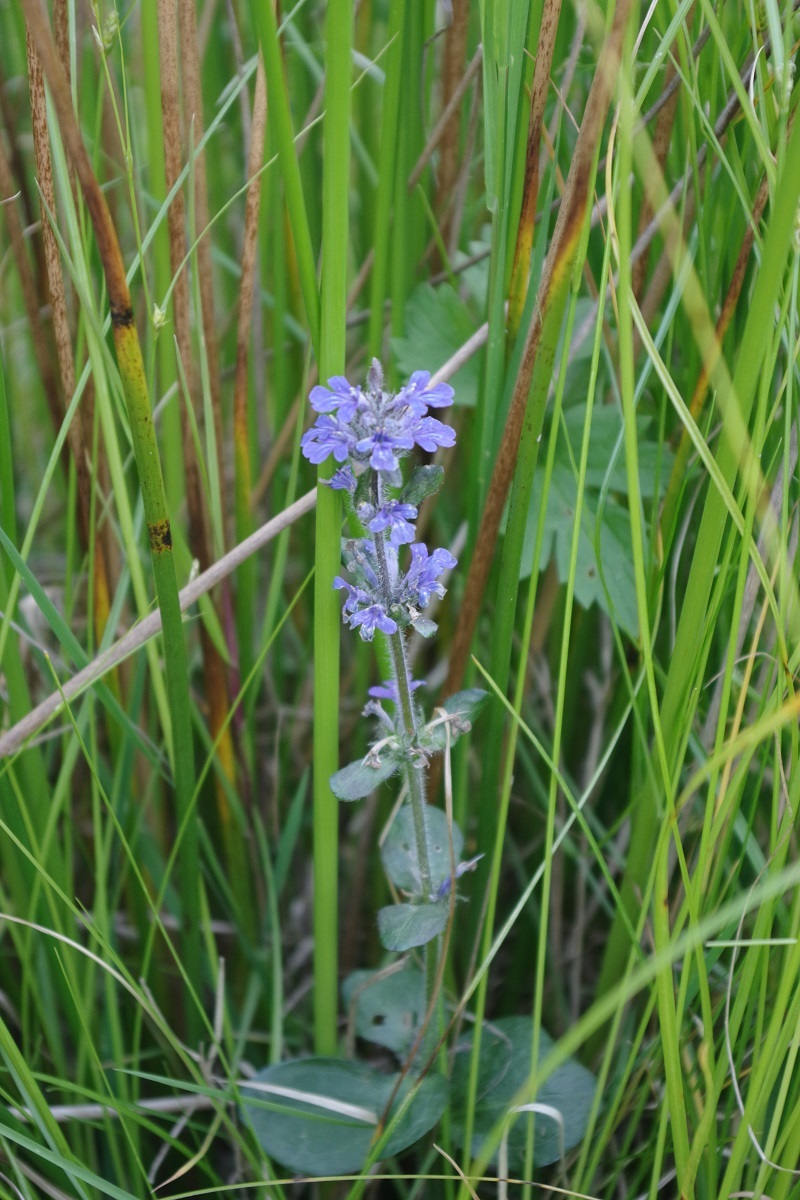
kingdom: Plantae
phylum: Tracheophyta
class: Magnoliopsida
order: Lamiales
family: Lamiaceae
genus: Ajuga
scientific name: Ajuga reptans
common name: Bugle
